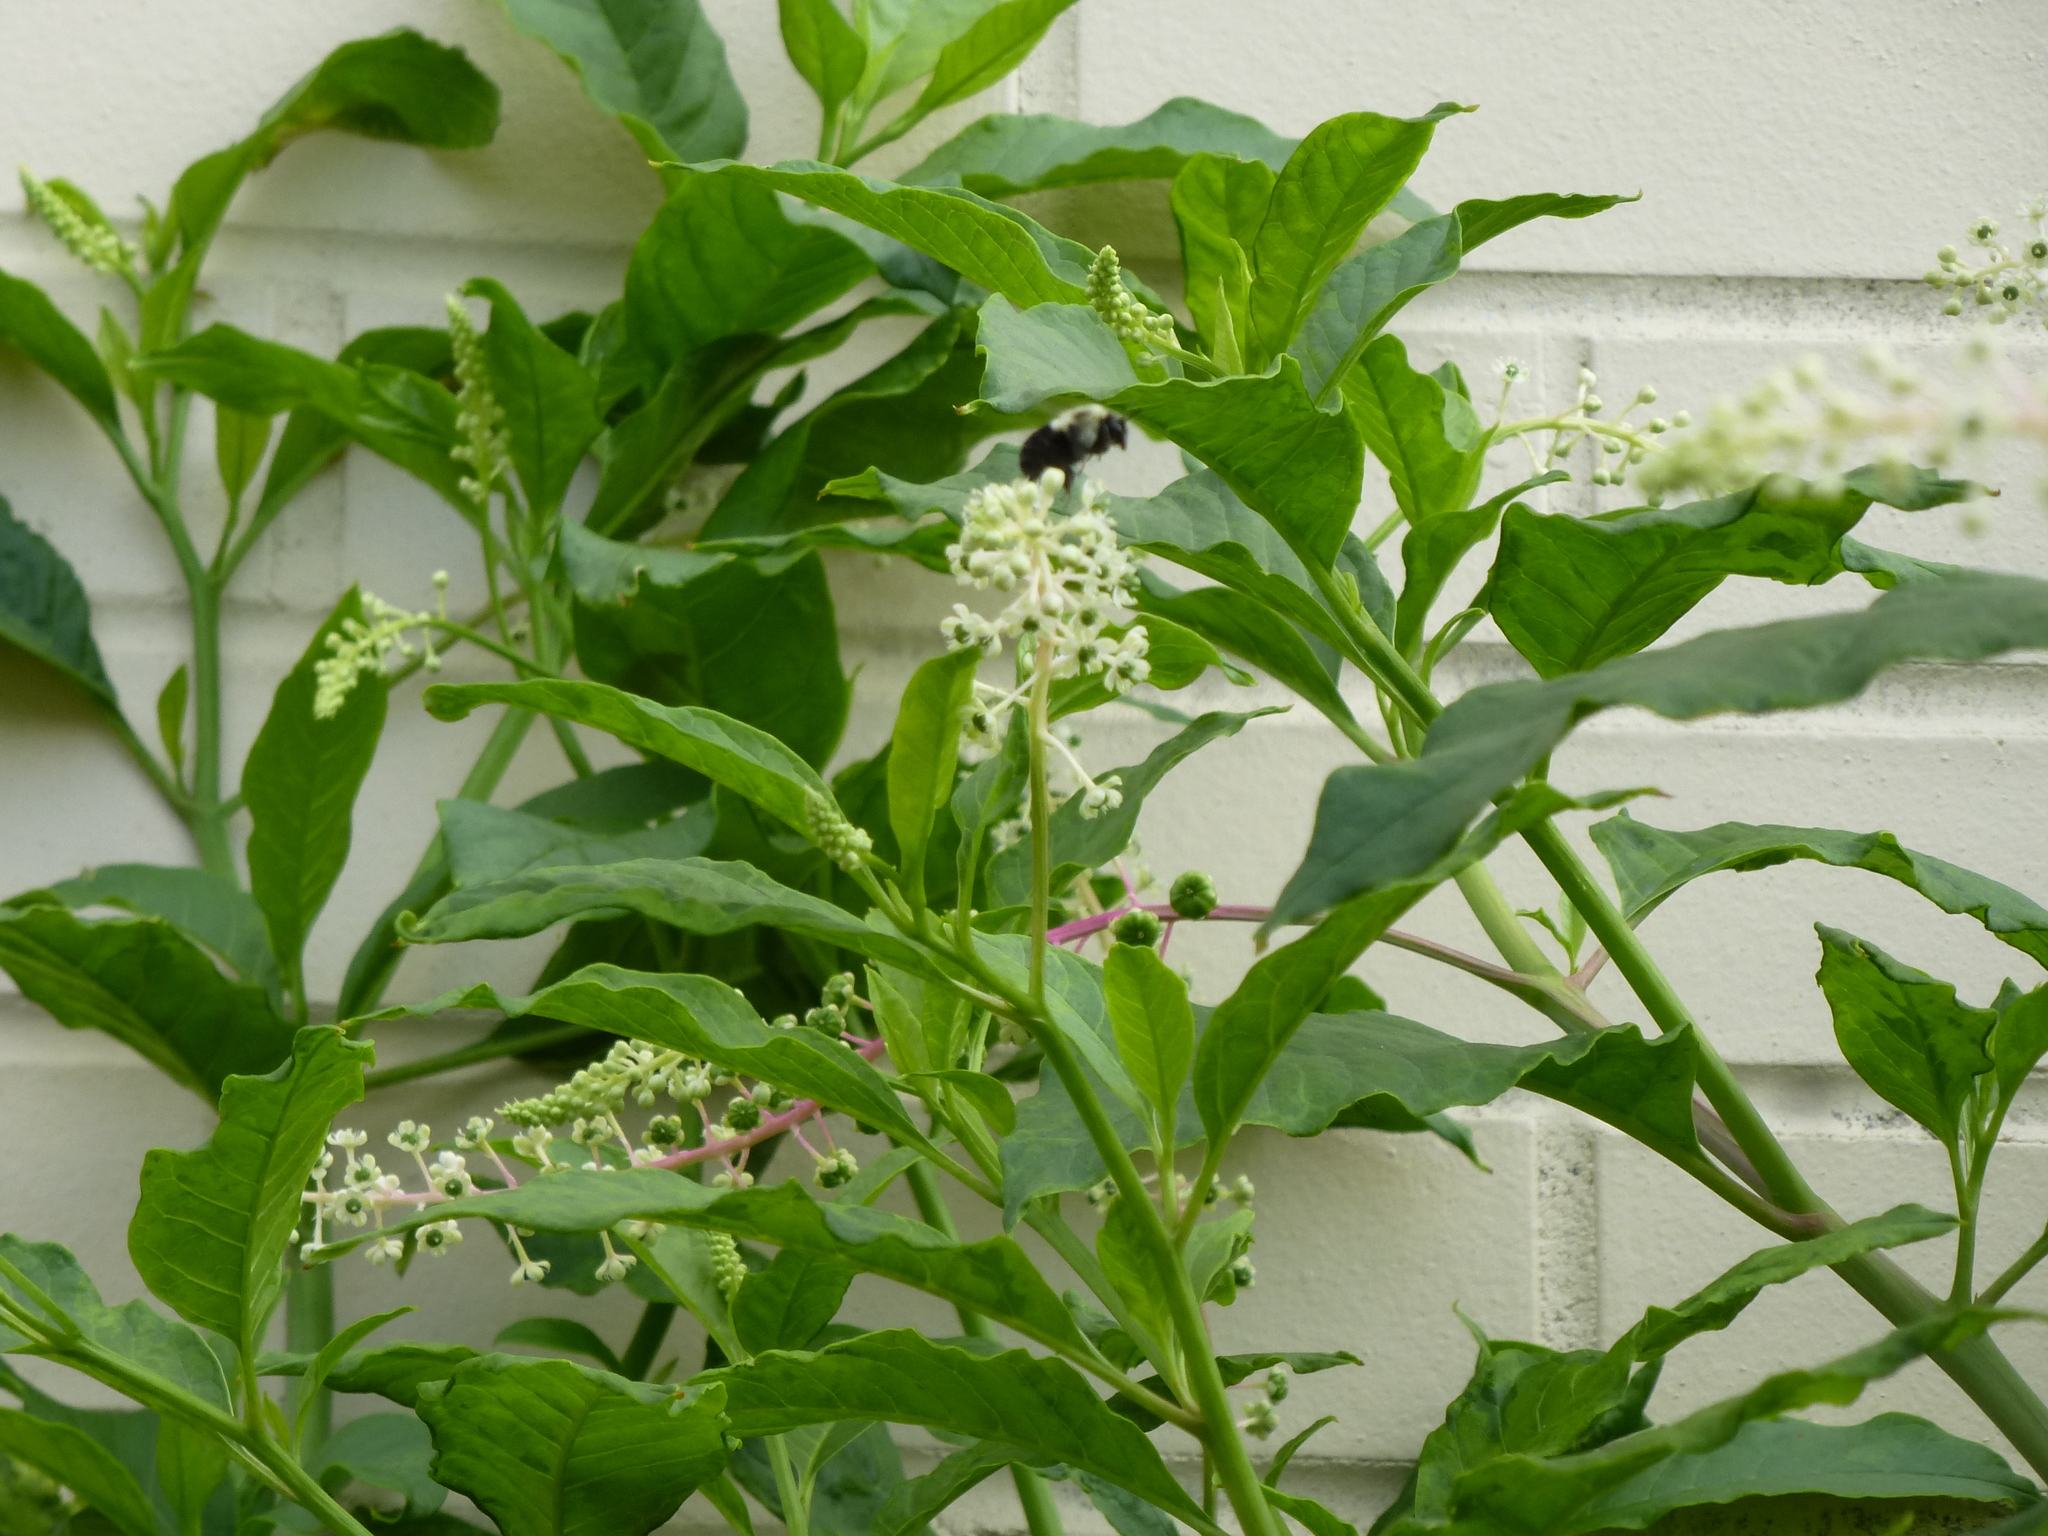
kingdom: Animalia
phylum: Arthropoda
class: Insecta
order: Hymenoptera
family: Apidae
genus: Bombus
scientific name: Bombus impatiens
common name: Common eastern bumble bee
